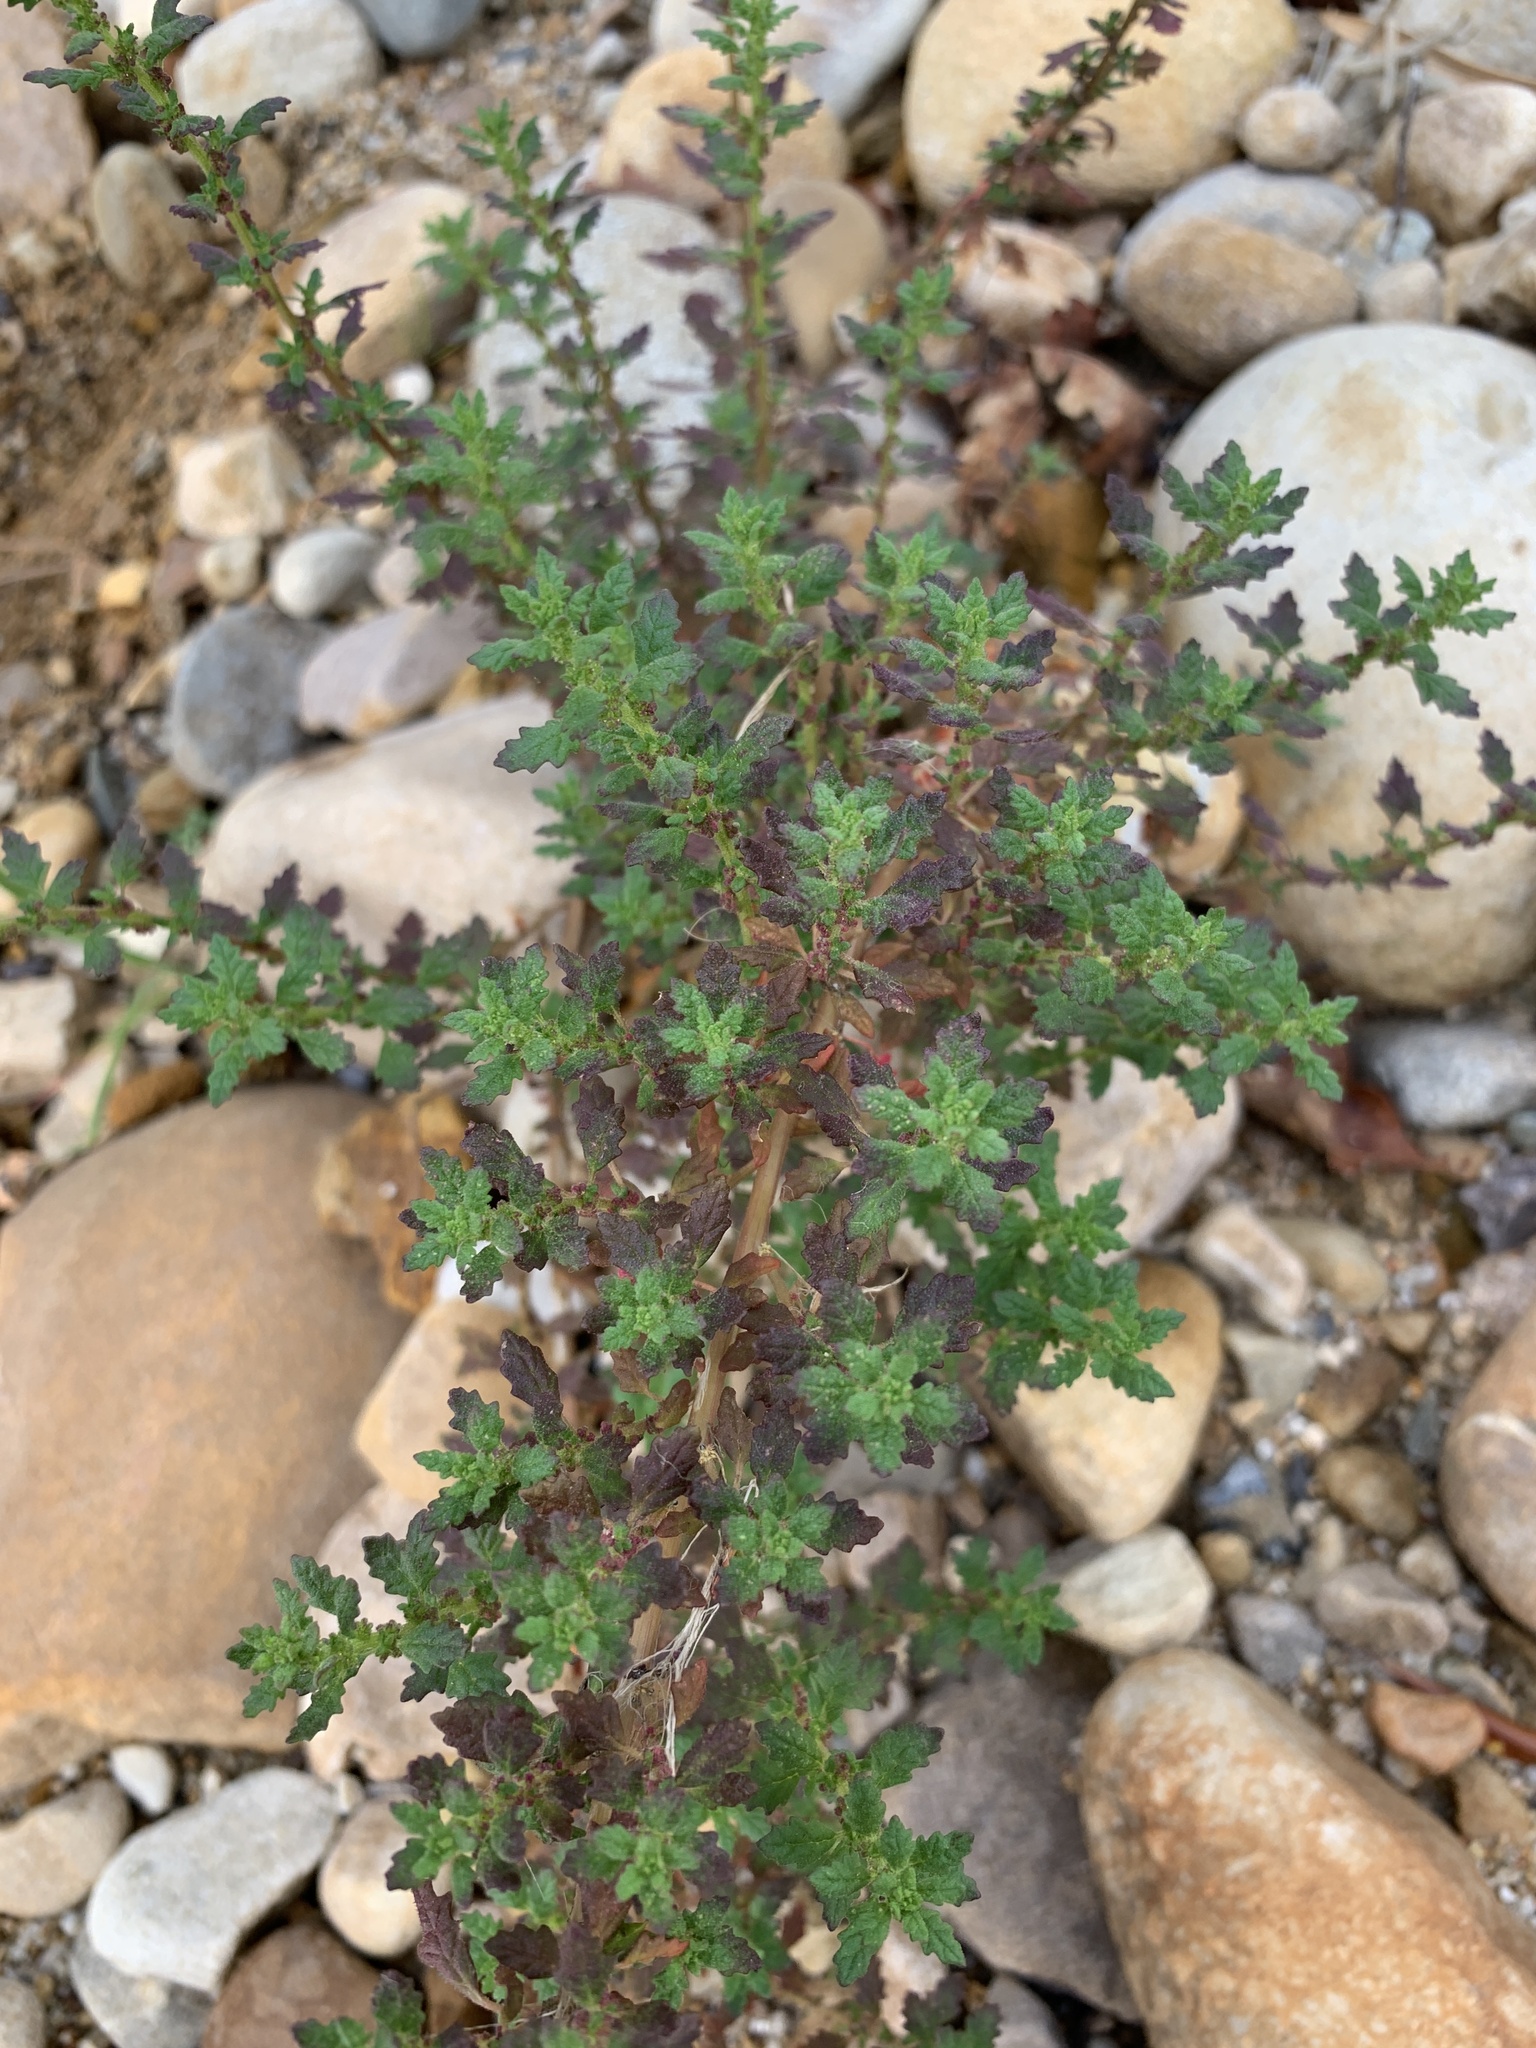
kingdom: Plantae
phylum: Tracheophyta
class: Magnoliopsida
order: Caryophyllales
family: Amaranthaceae
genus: Dysphania
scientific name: Dysphania pumilio
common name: Clammy goosefoot
